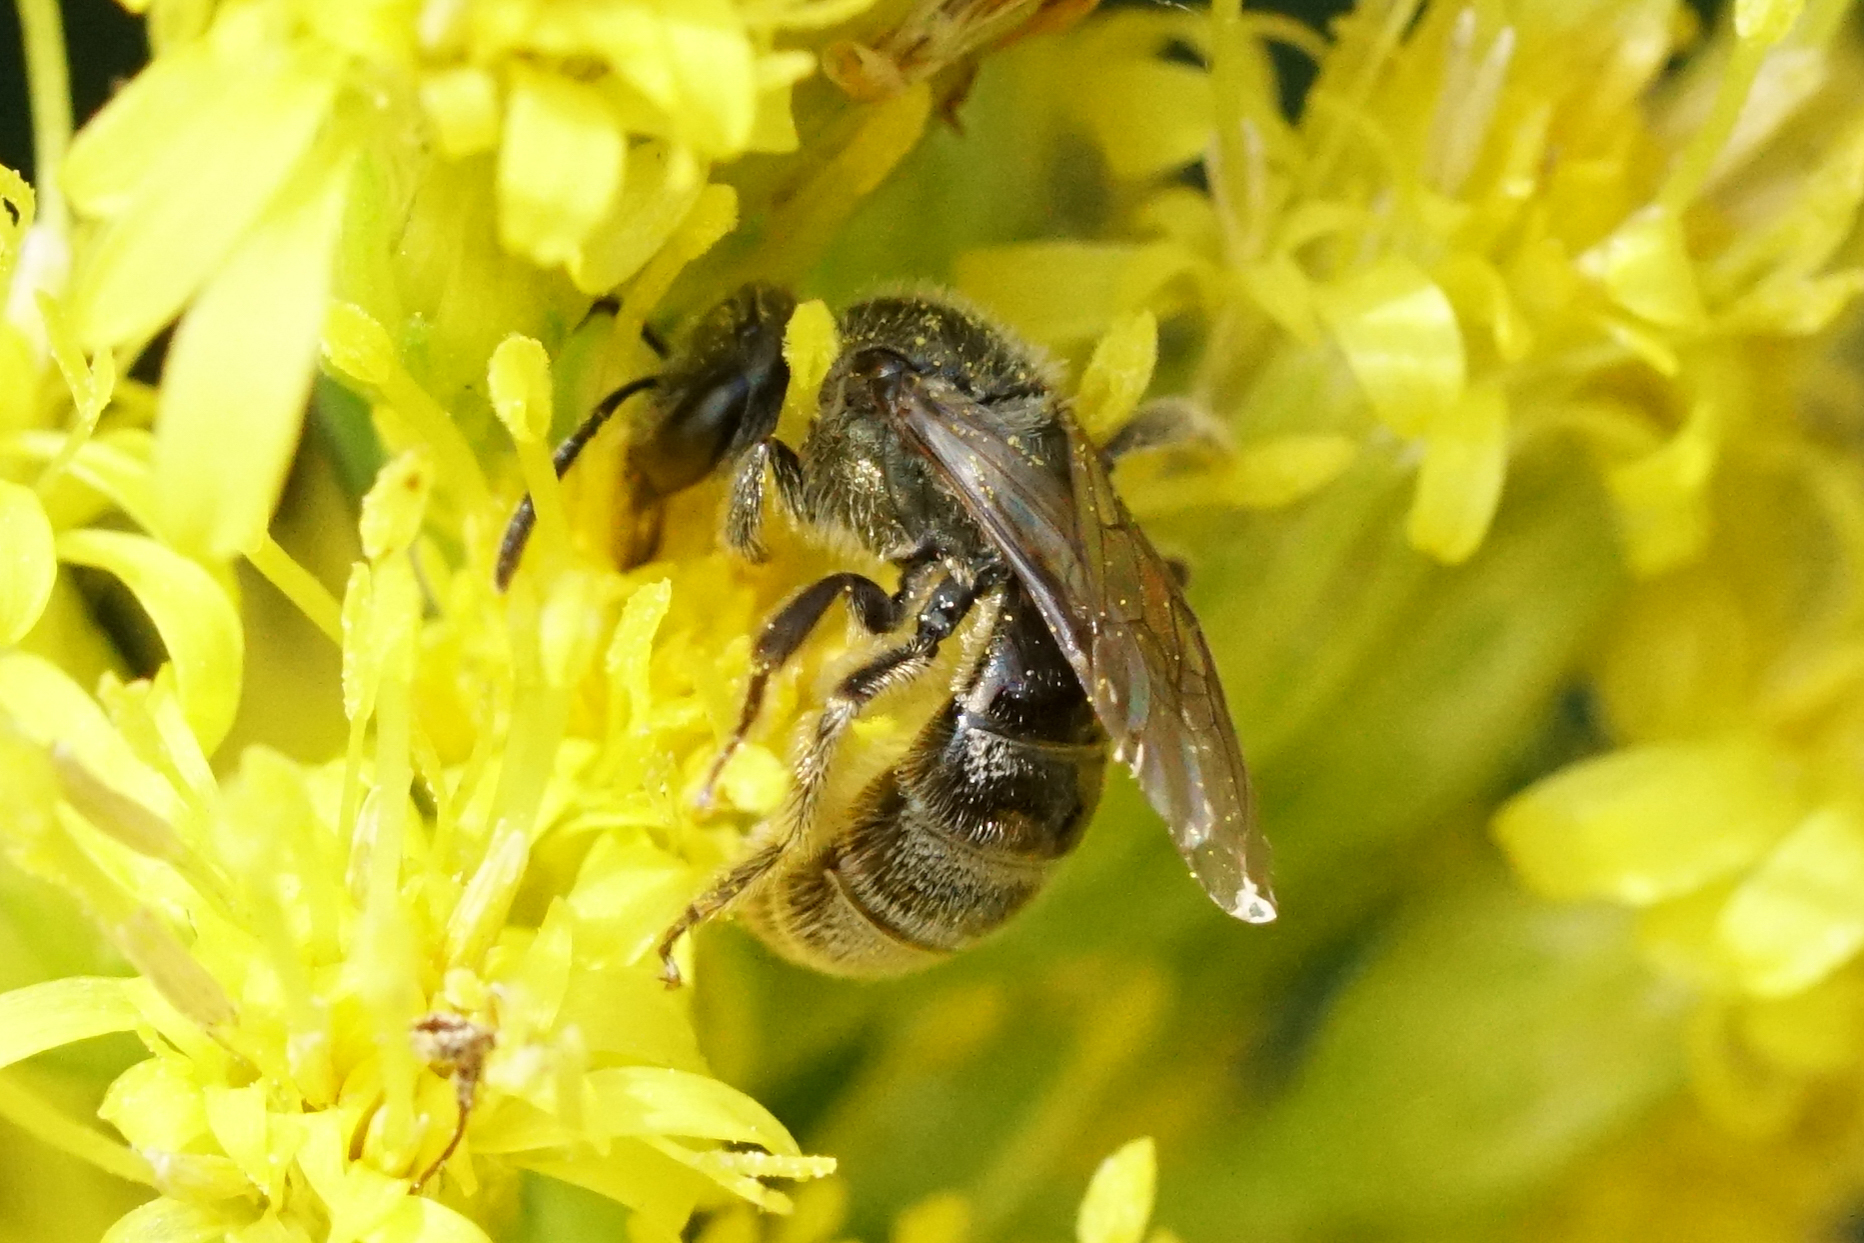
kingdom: Animalia
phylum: Arthropoda
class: Insecta
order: Hymenoptera
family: Halictidae
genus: Dialictus
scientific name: Dialictus
